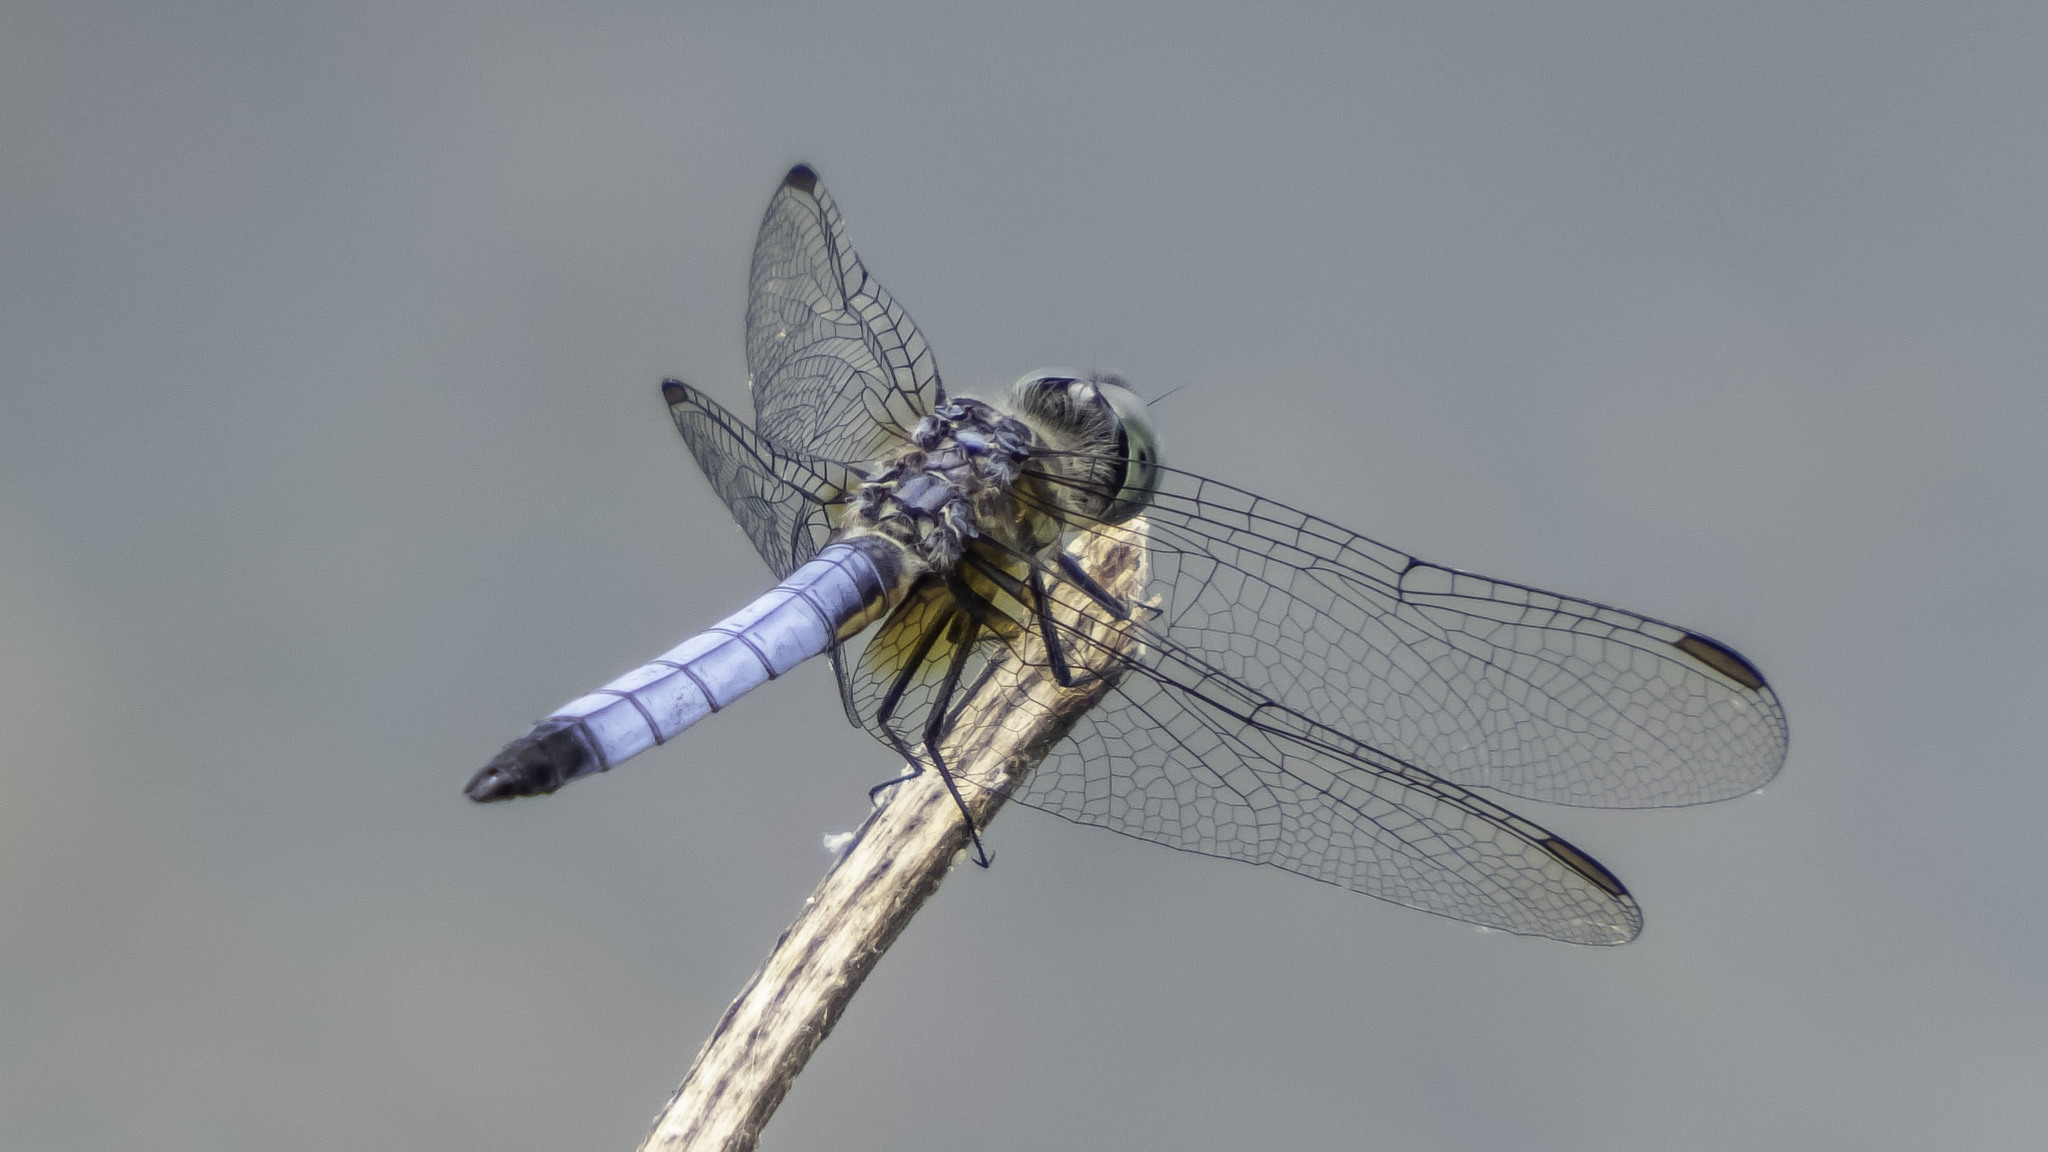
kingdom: Animalia
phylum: Arthropoda
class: Insecta
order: Odonata
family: Libellulidae
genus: Pachydiplax
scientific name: Pachydiplax longipennis
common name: Blue dasher
